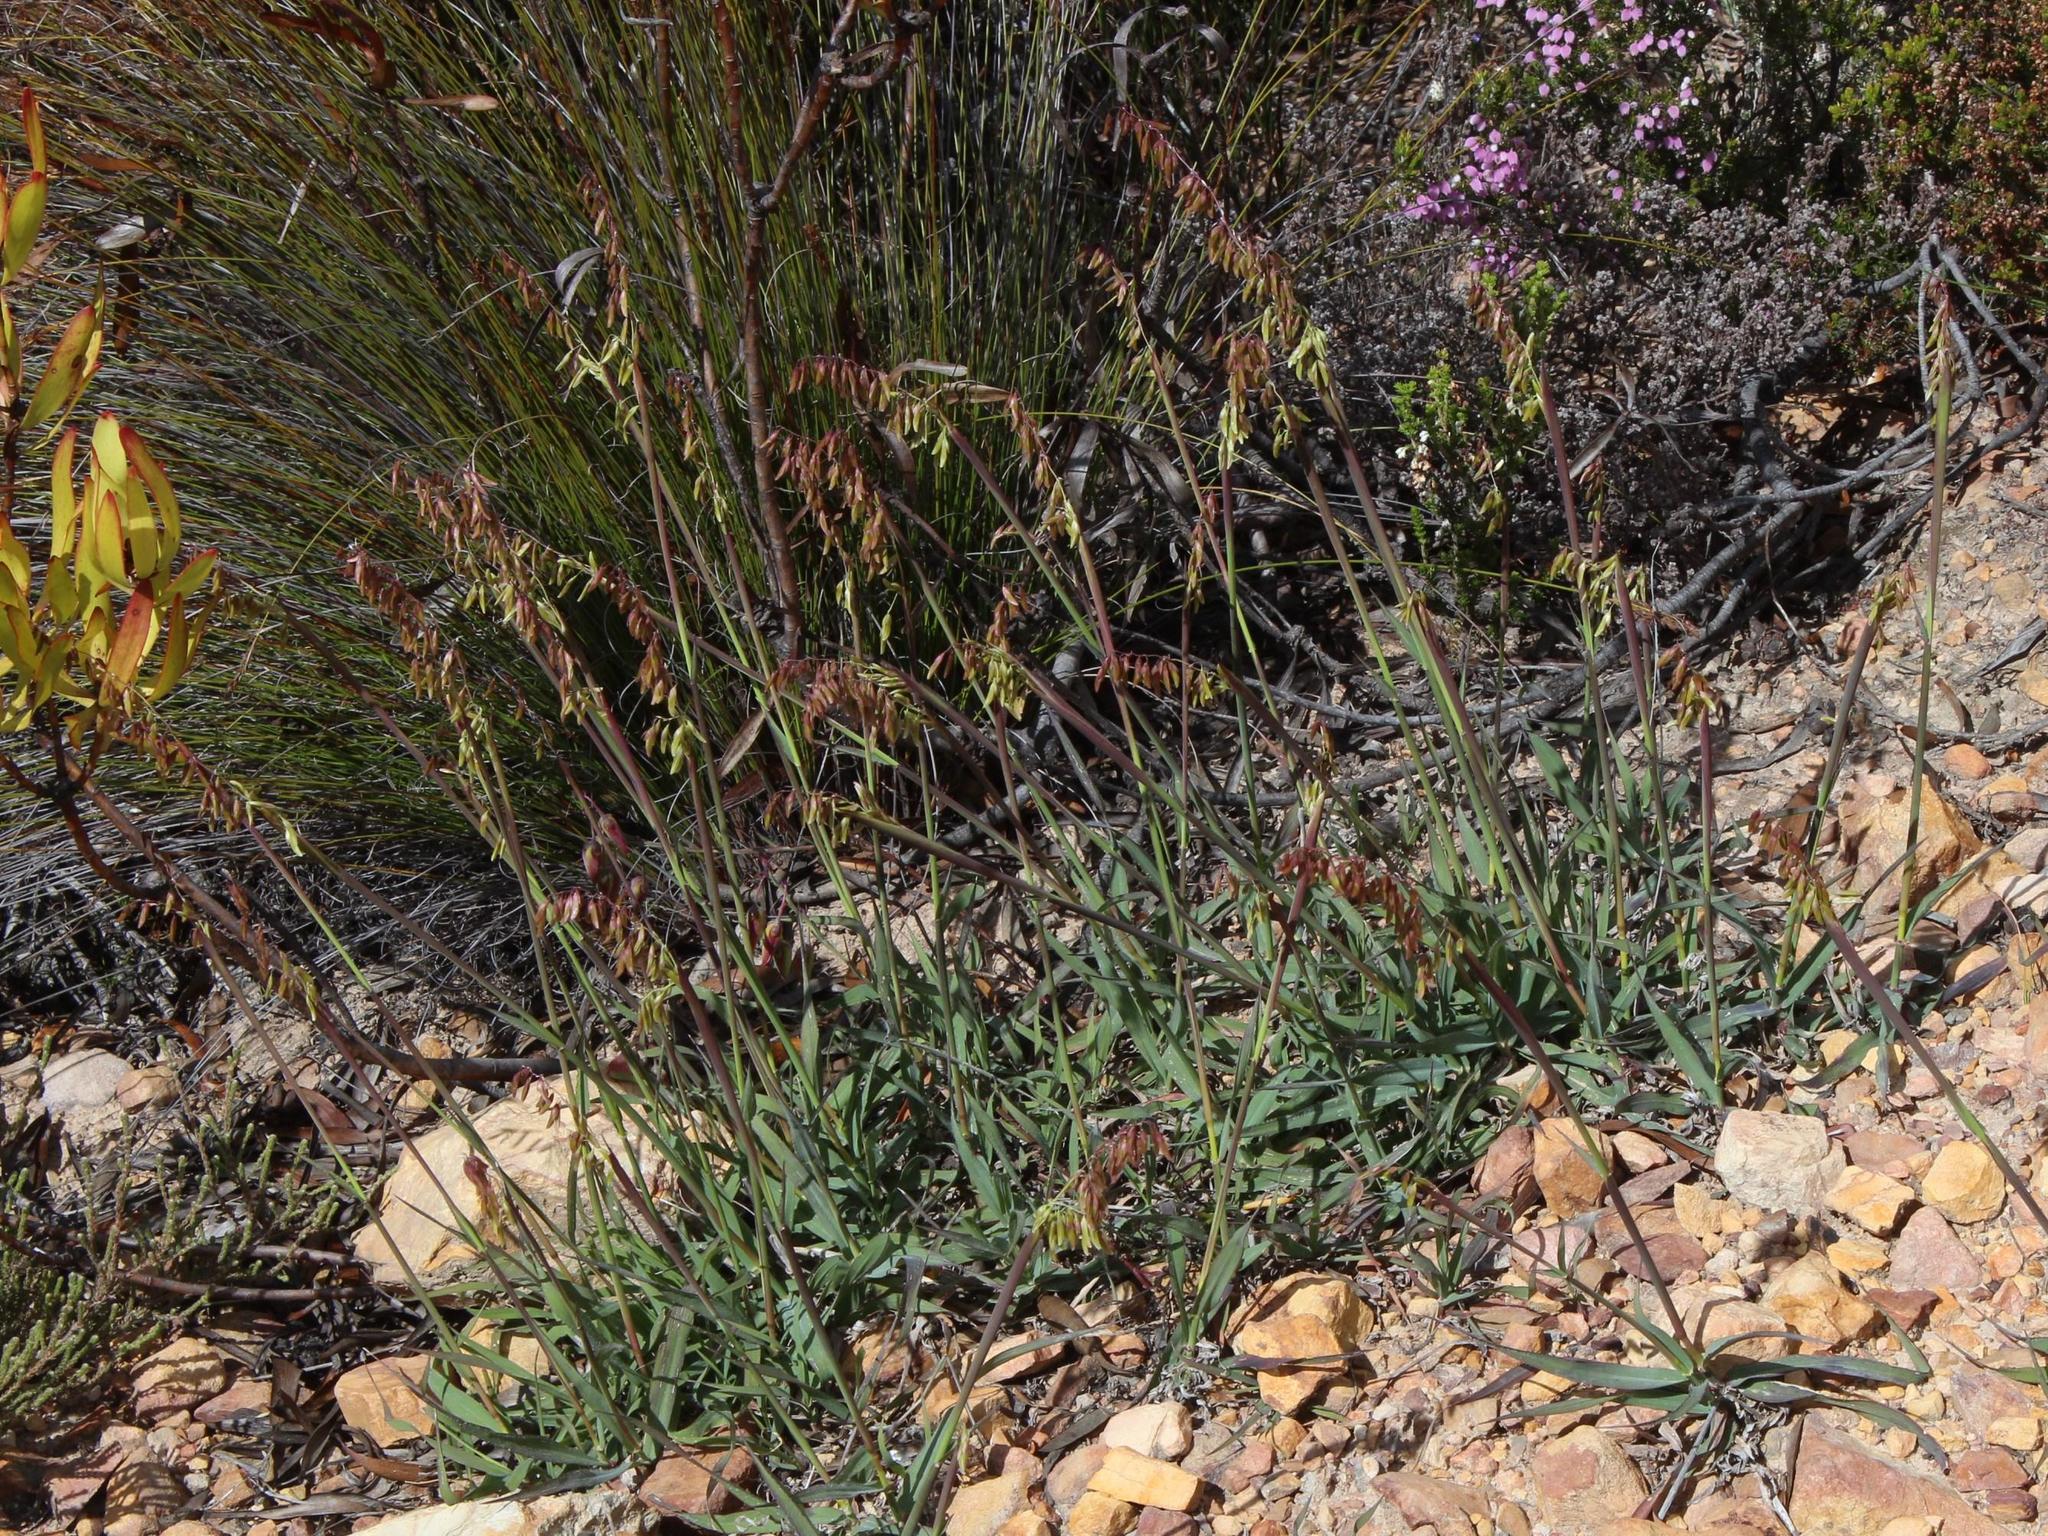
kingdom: Plantae
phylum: Tracheophyta
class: Liliopsida
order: Poales
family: Poaceae
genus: Ehrharta
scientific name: Ehrharta capensis
